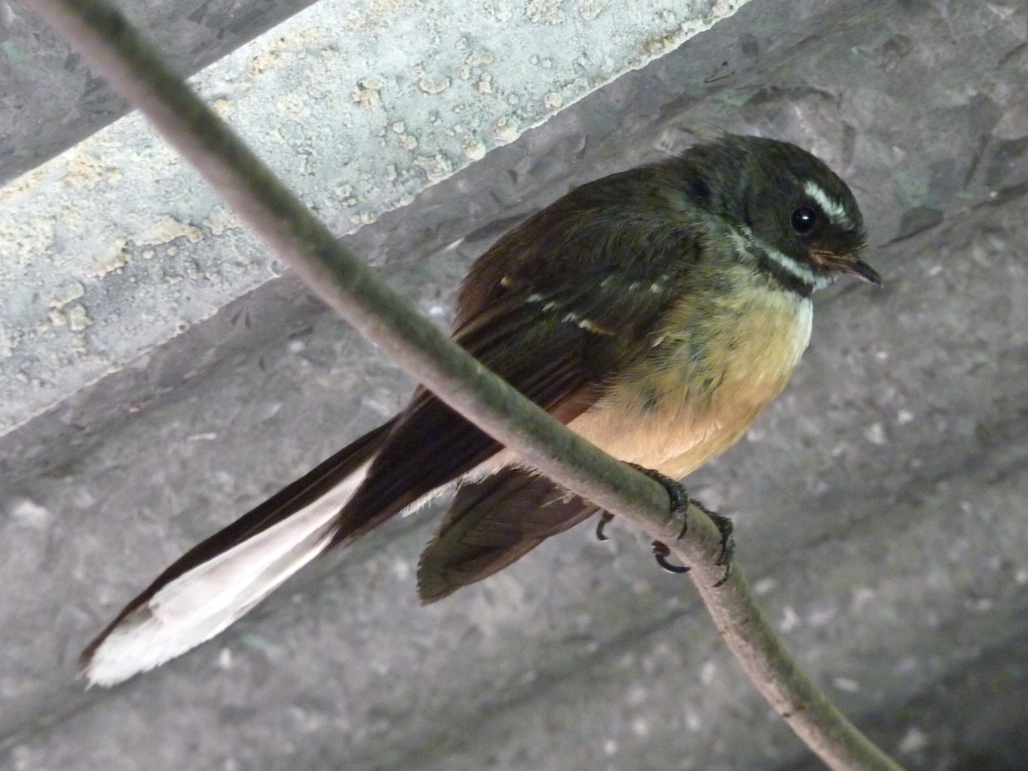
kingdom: Animalia
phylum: Chordata
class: Aves
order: Passeriformes
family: Rhipiduridae
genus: Rhipidura
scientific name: Rhipidura fuliginosa
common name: New zealand fantail
